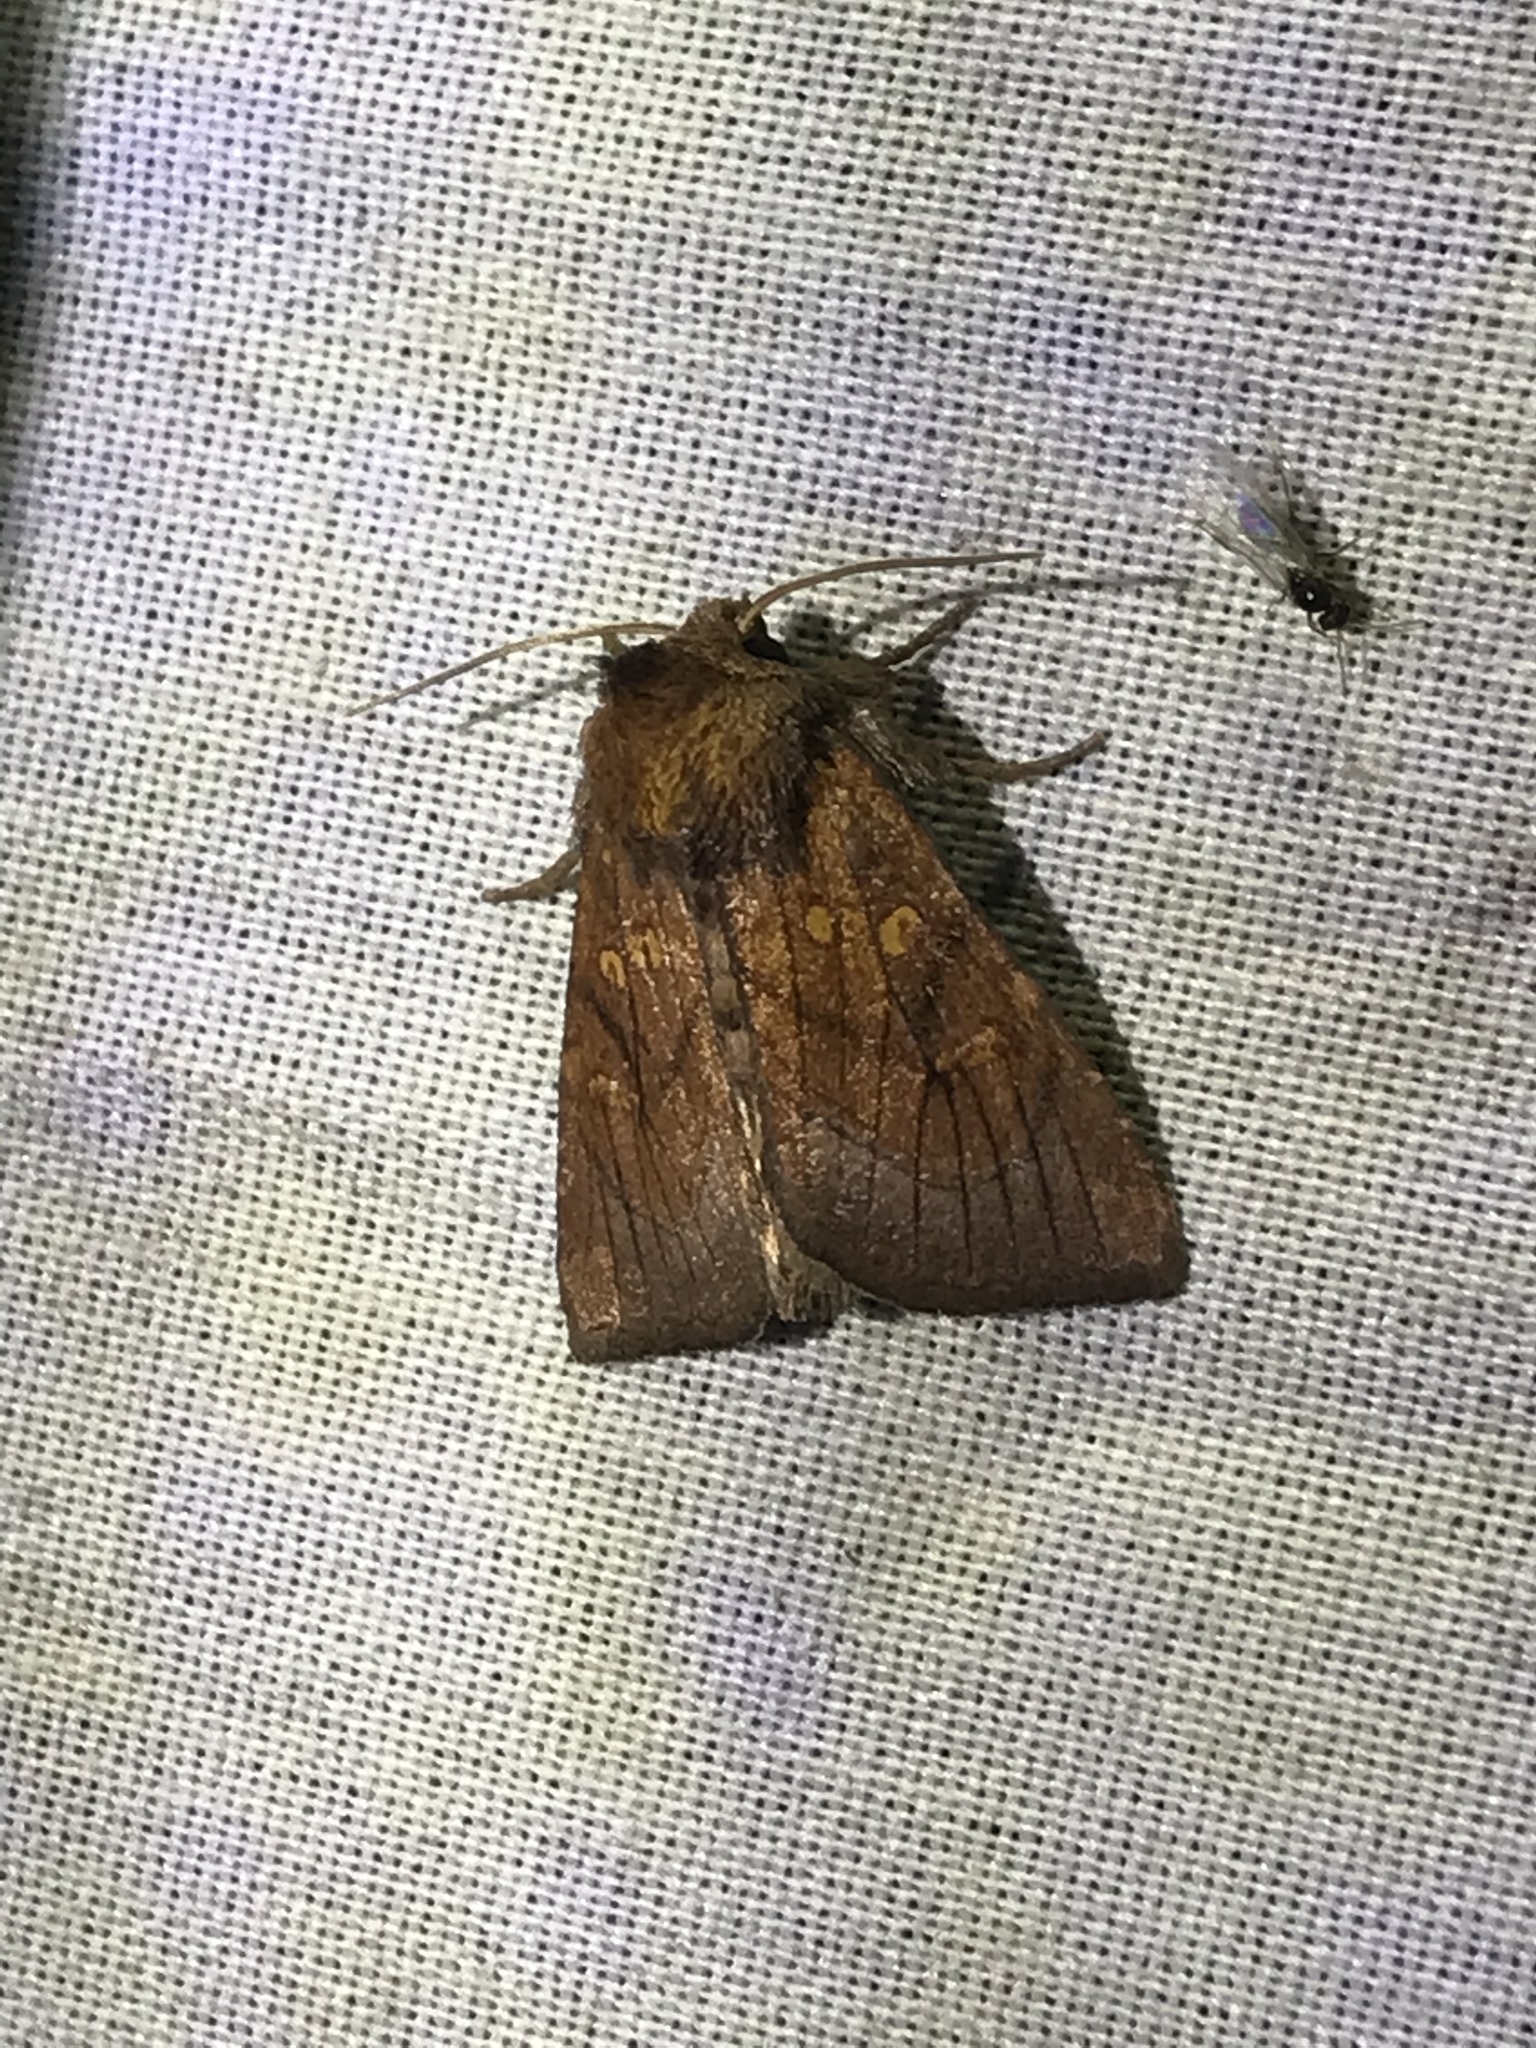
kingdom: Animalia
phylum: Arthropoda
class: Insecta
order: Lepidoptera
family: Noctuidae
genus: Papaipema
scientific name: Papaipema inquaesita
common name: Sensitive fern borer moth
